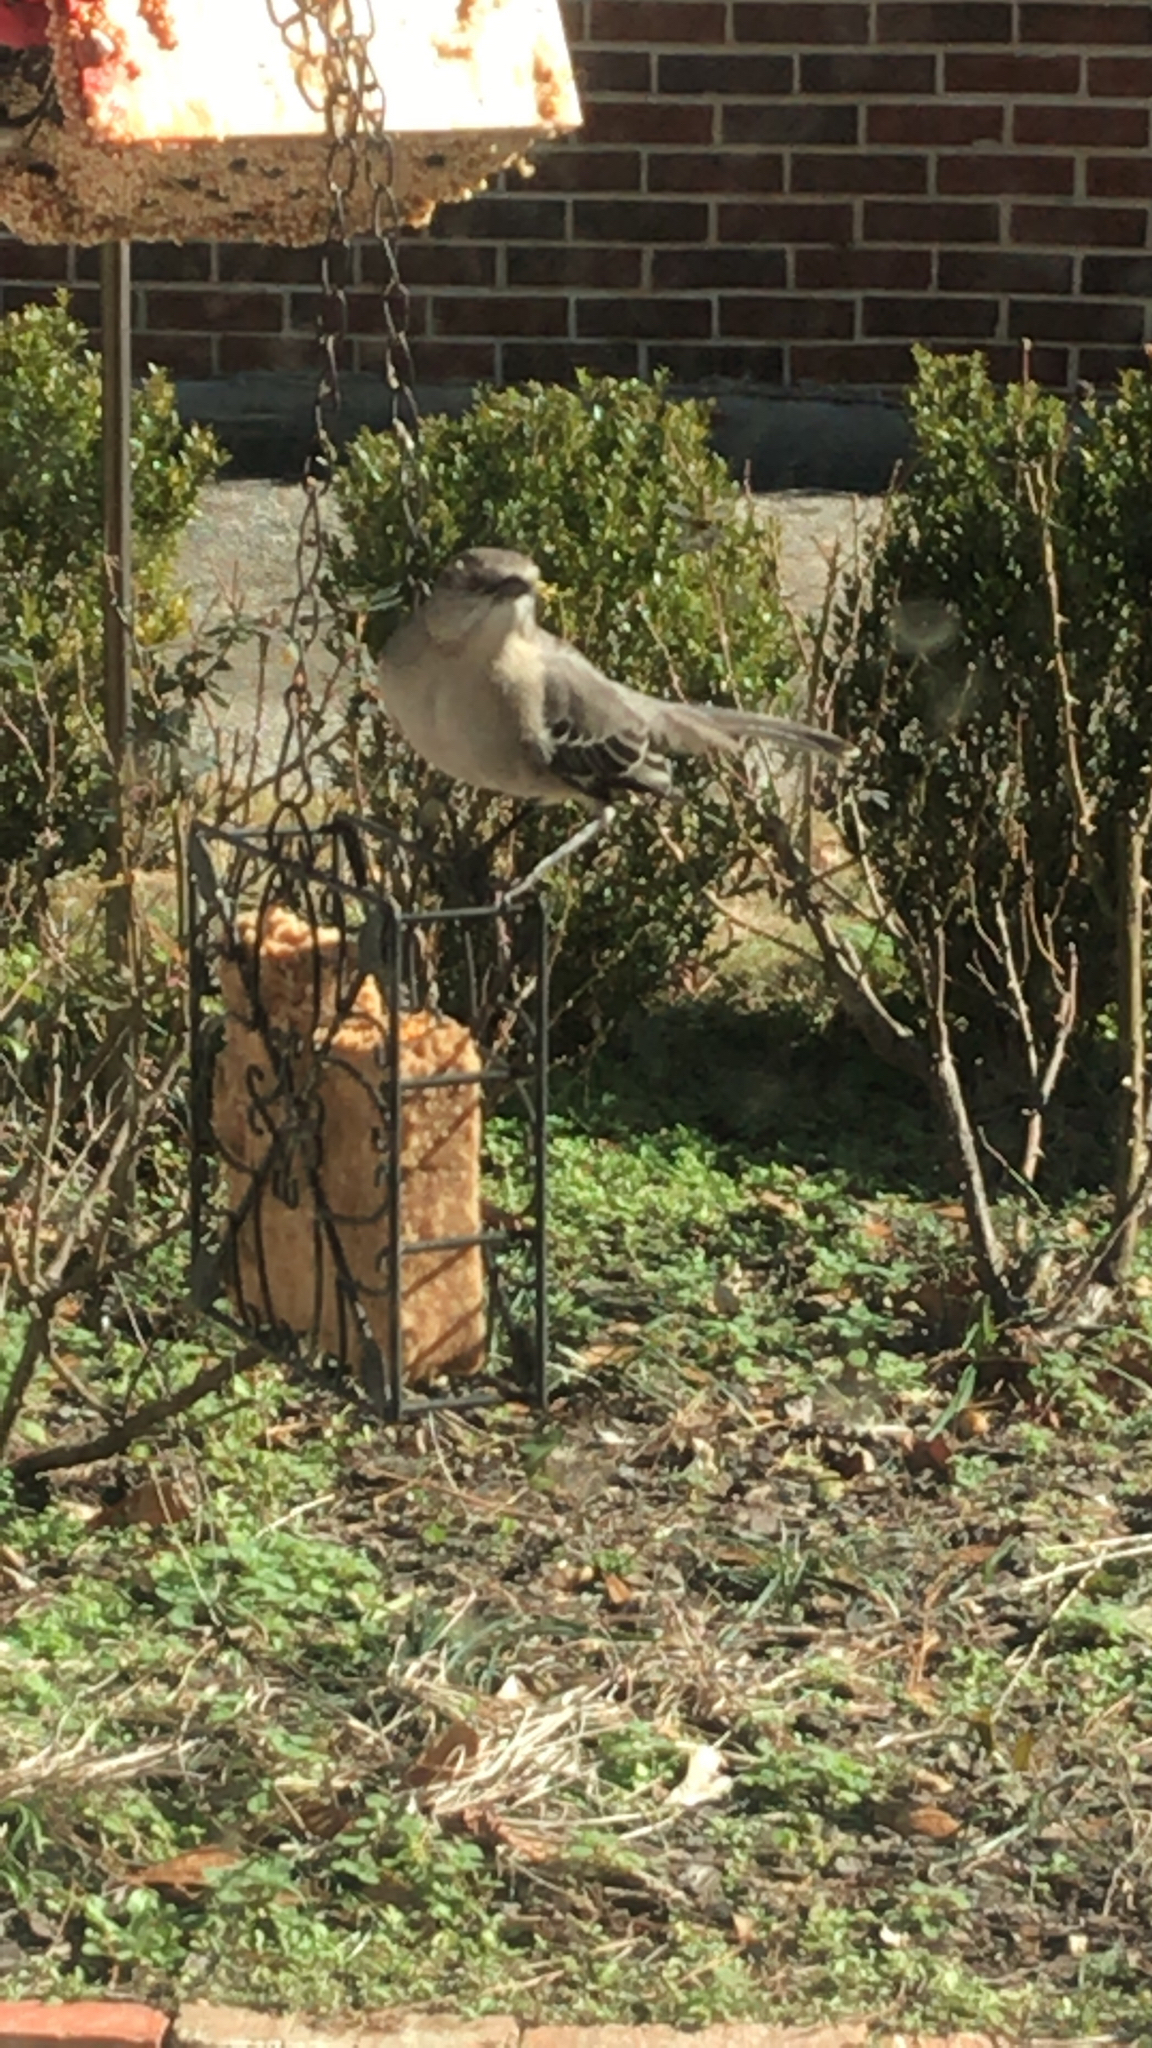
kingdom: Animalia
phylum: Chordata
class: Aves
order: Passeriformes
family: Mimidae
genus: Mimus
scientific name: Mimus polyglottos
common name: Northern mockingbird
